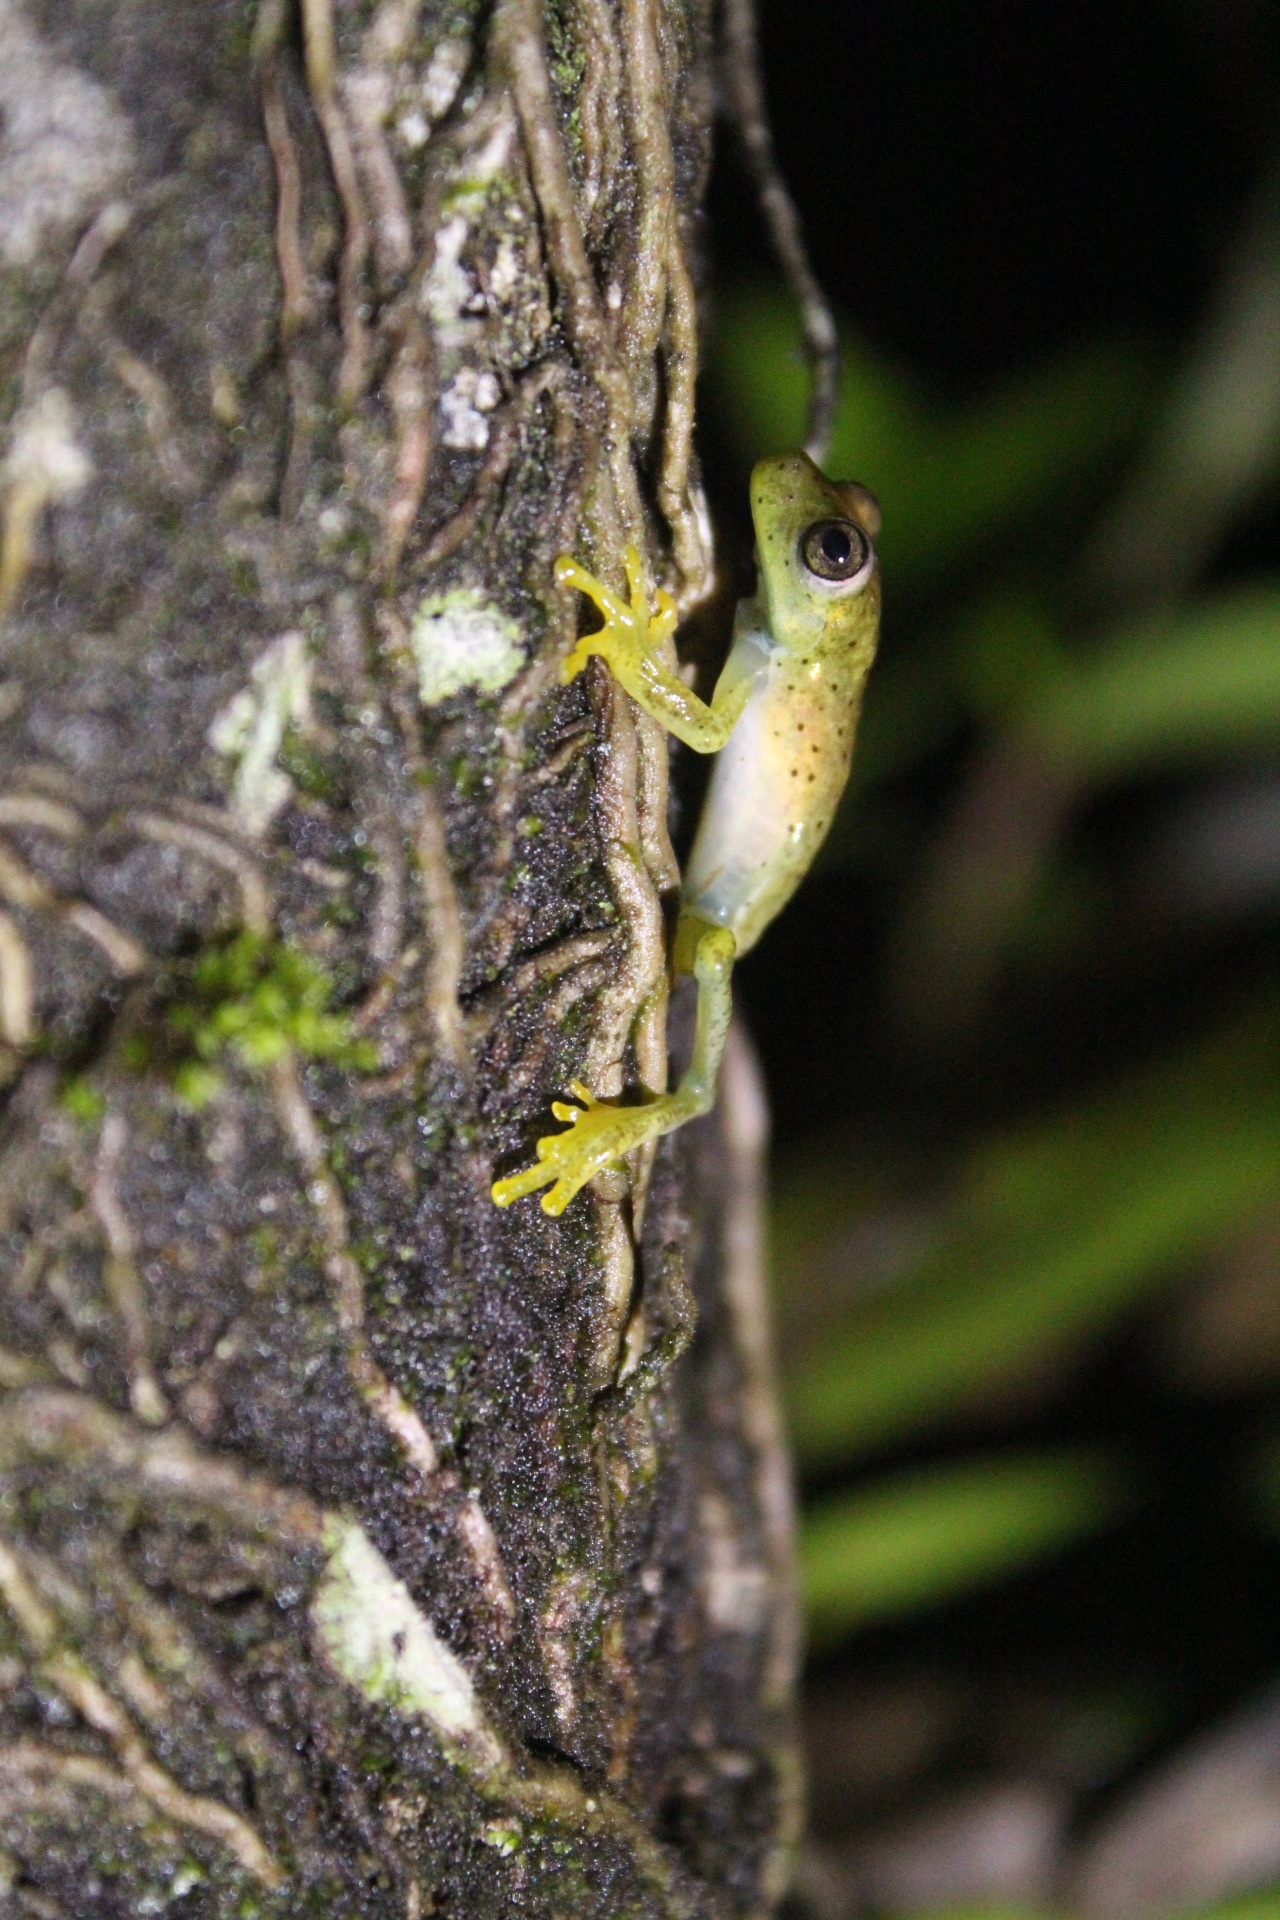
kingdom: Animalia
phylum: Chordata
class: Amphibia
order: Anura
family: Hylidae
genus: Boana
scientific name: Boana rosenbergi
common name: Rosenberg´s gladiator treefrog
